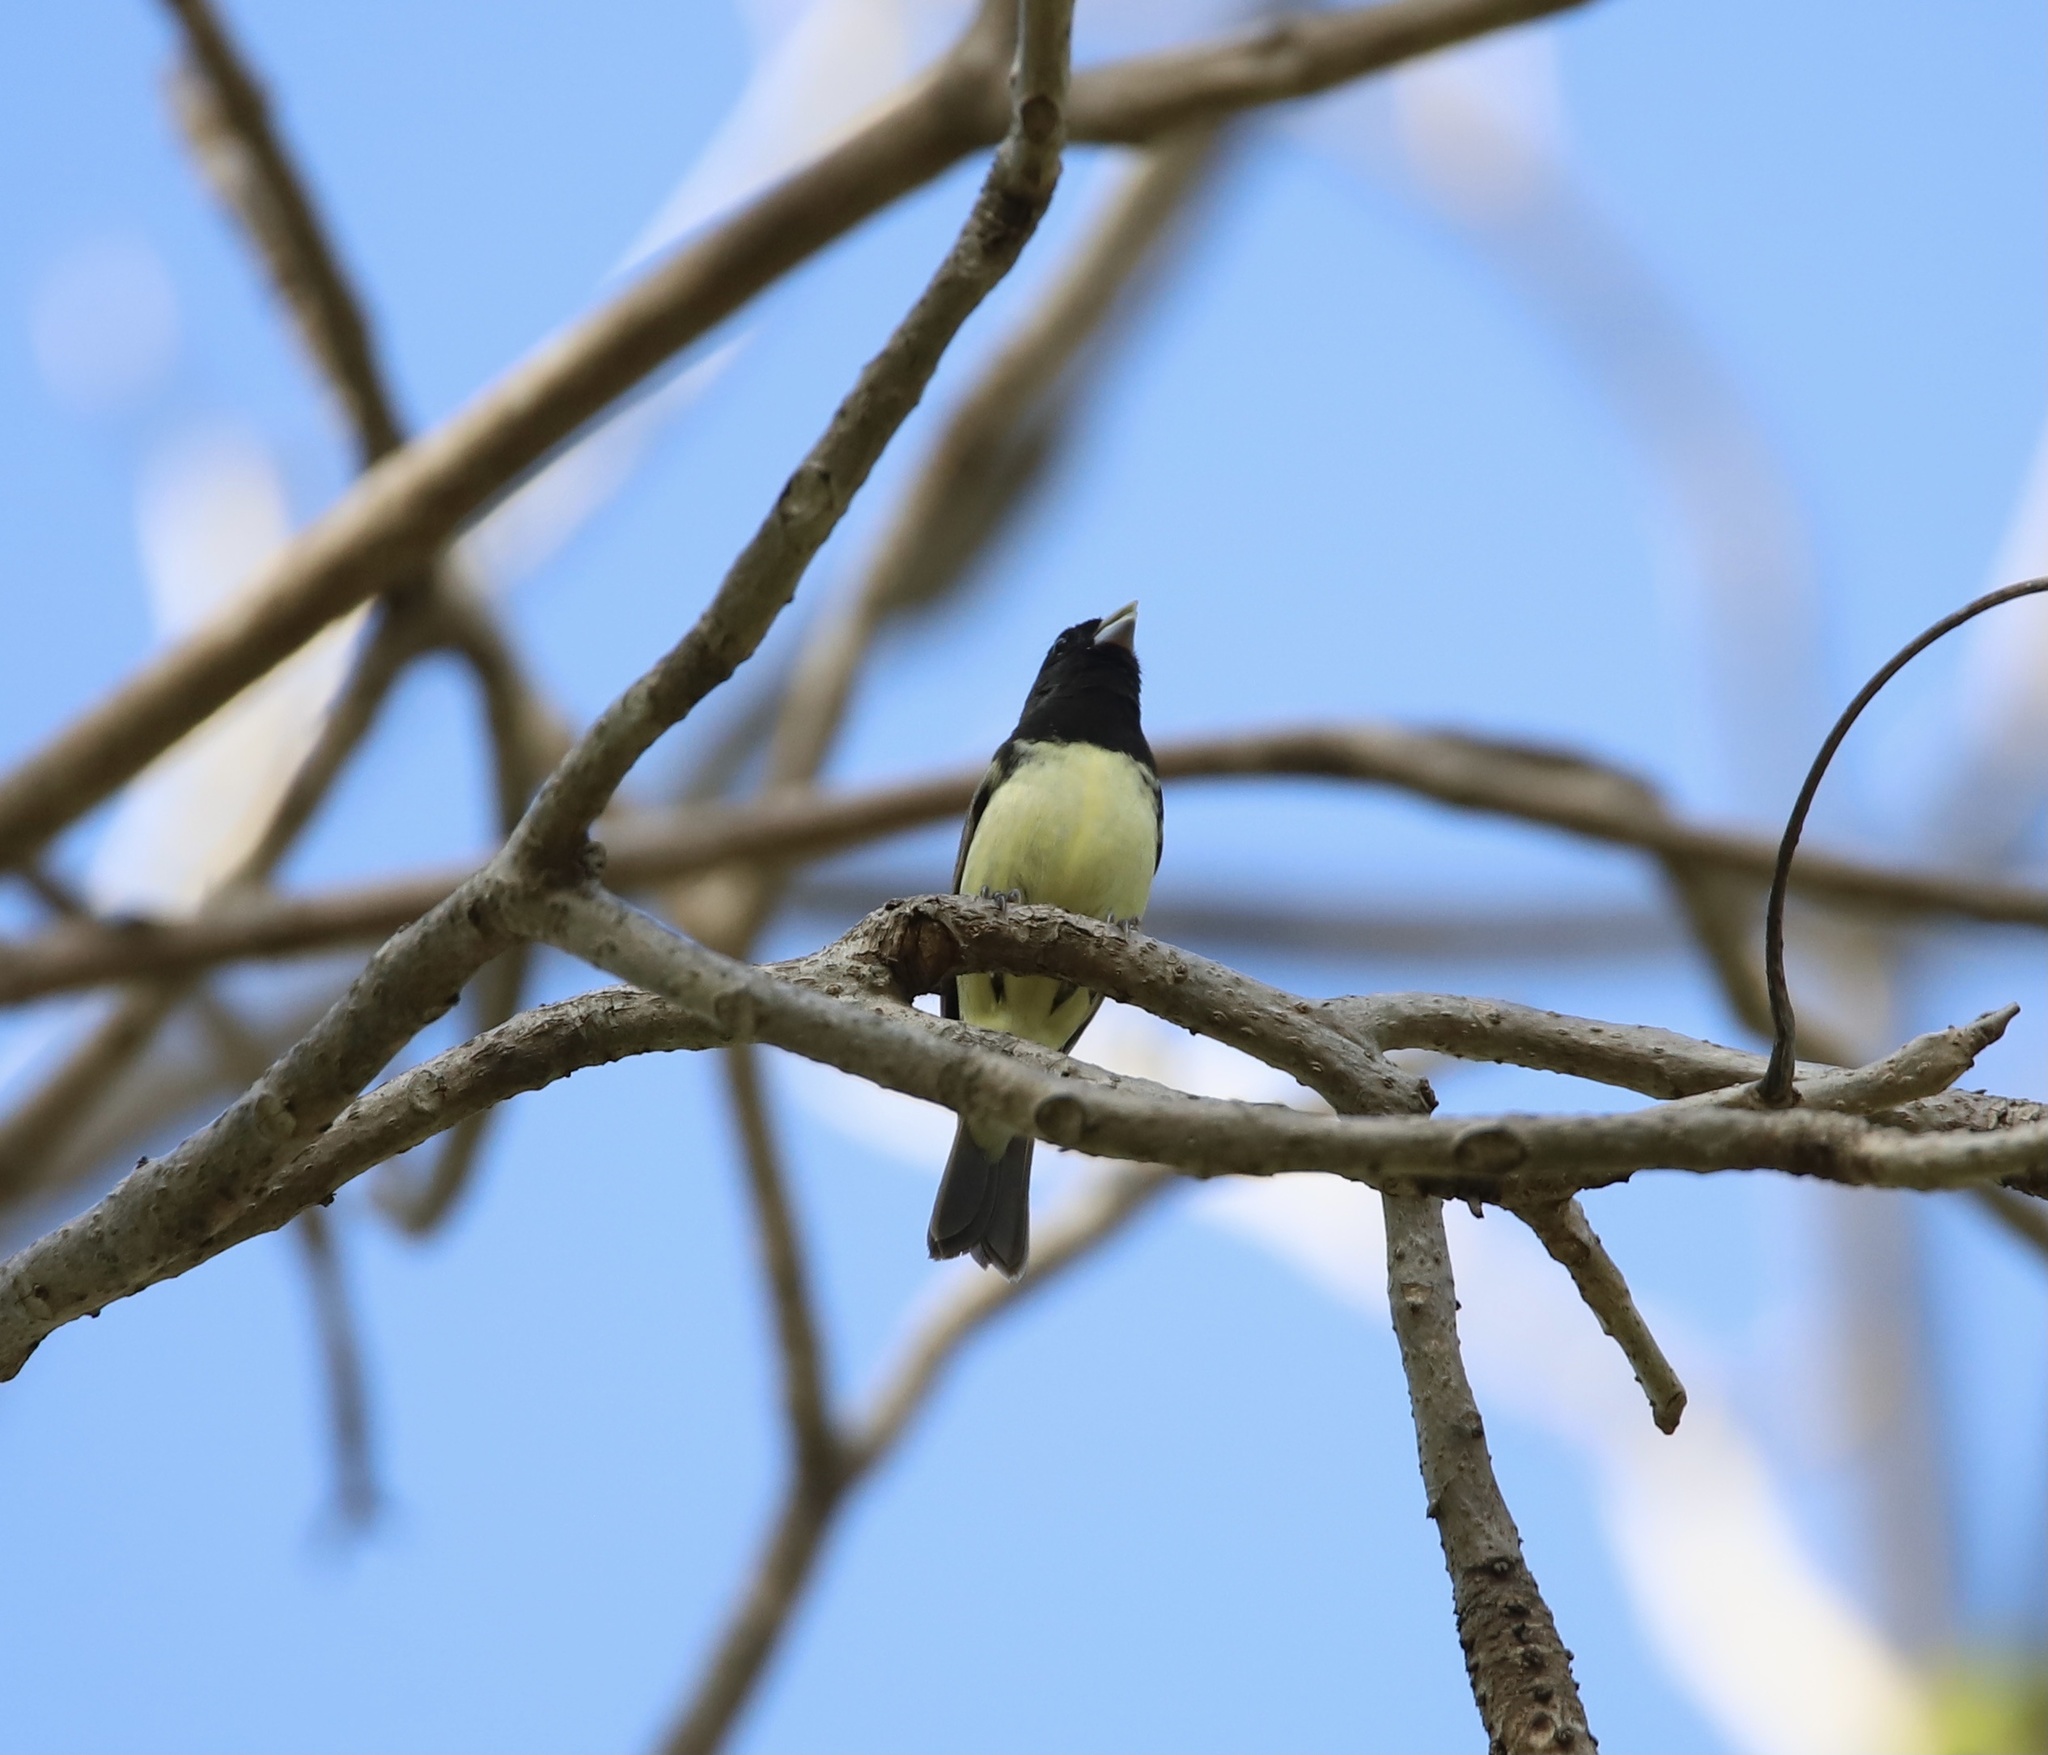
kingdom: Animalia
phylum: Chordata
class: Aves
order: Passeriformes
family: Thraupidae
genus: Sporophila
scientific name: Sporophila nigricollis
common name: Yellow-bellied seedeater
